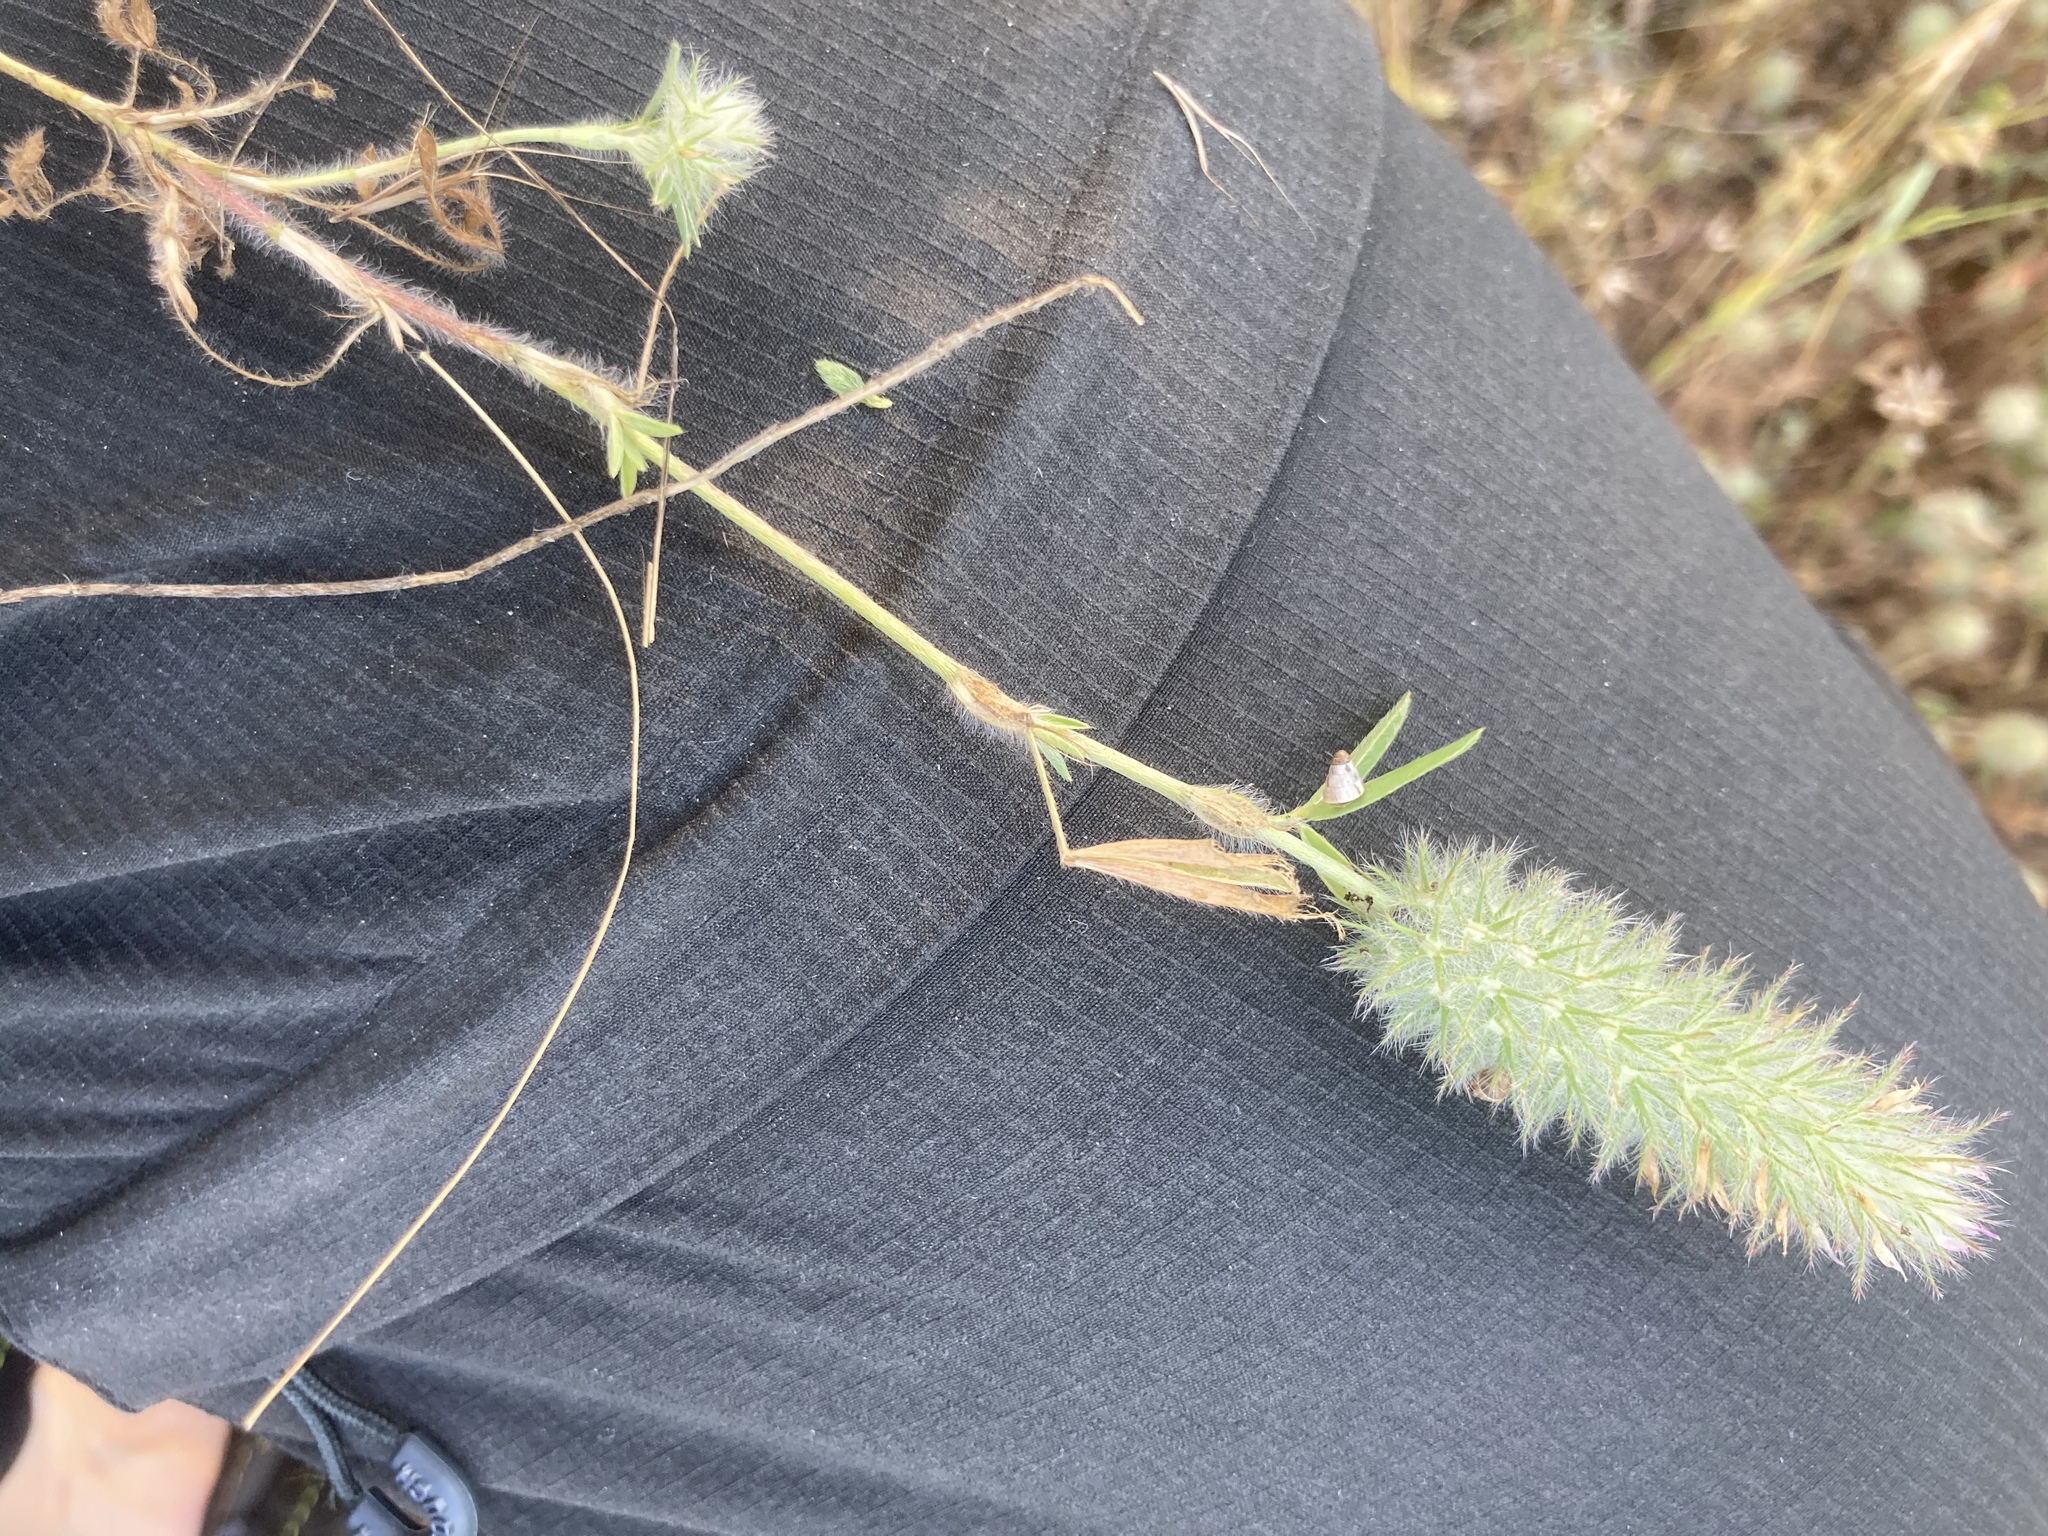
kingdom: Plantae
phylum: Tracheophyta
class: Magnoliopsida
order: Fabales
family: Fabaceae
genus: Trifolium
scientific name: Trifolium infamia-ponertii
